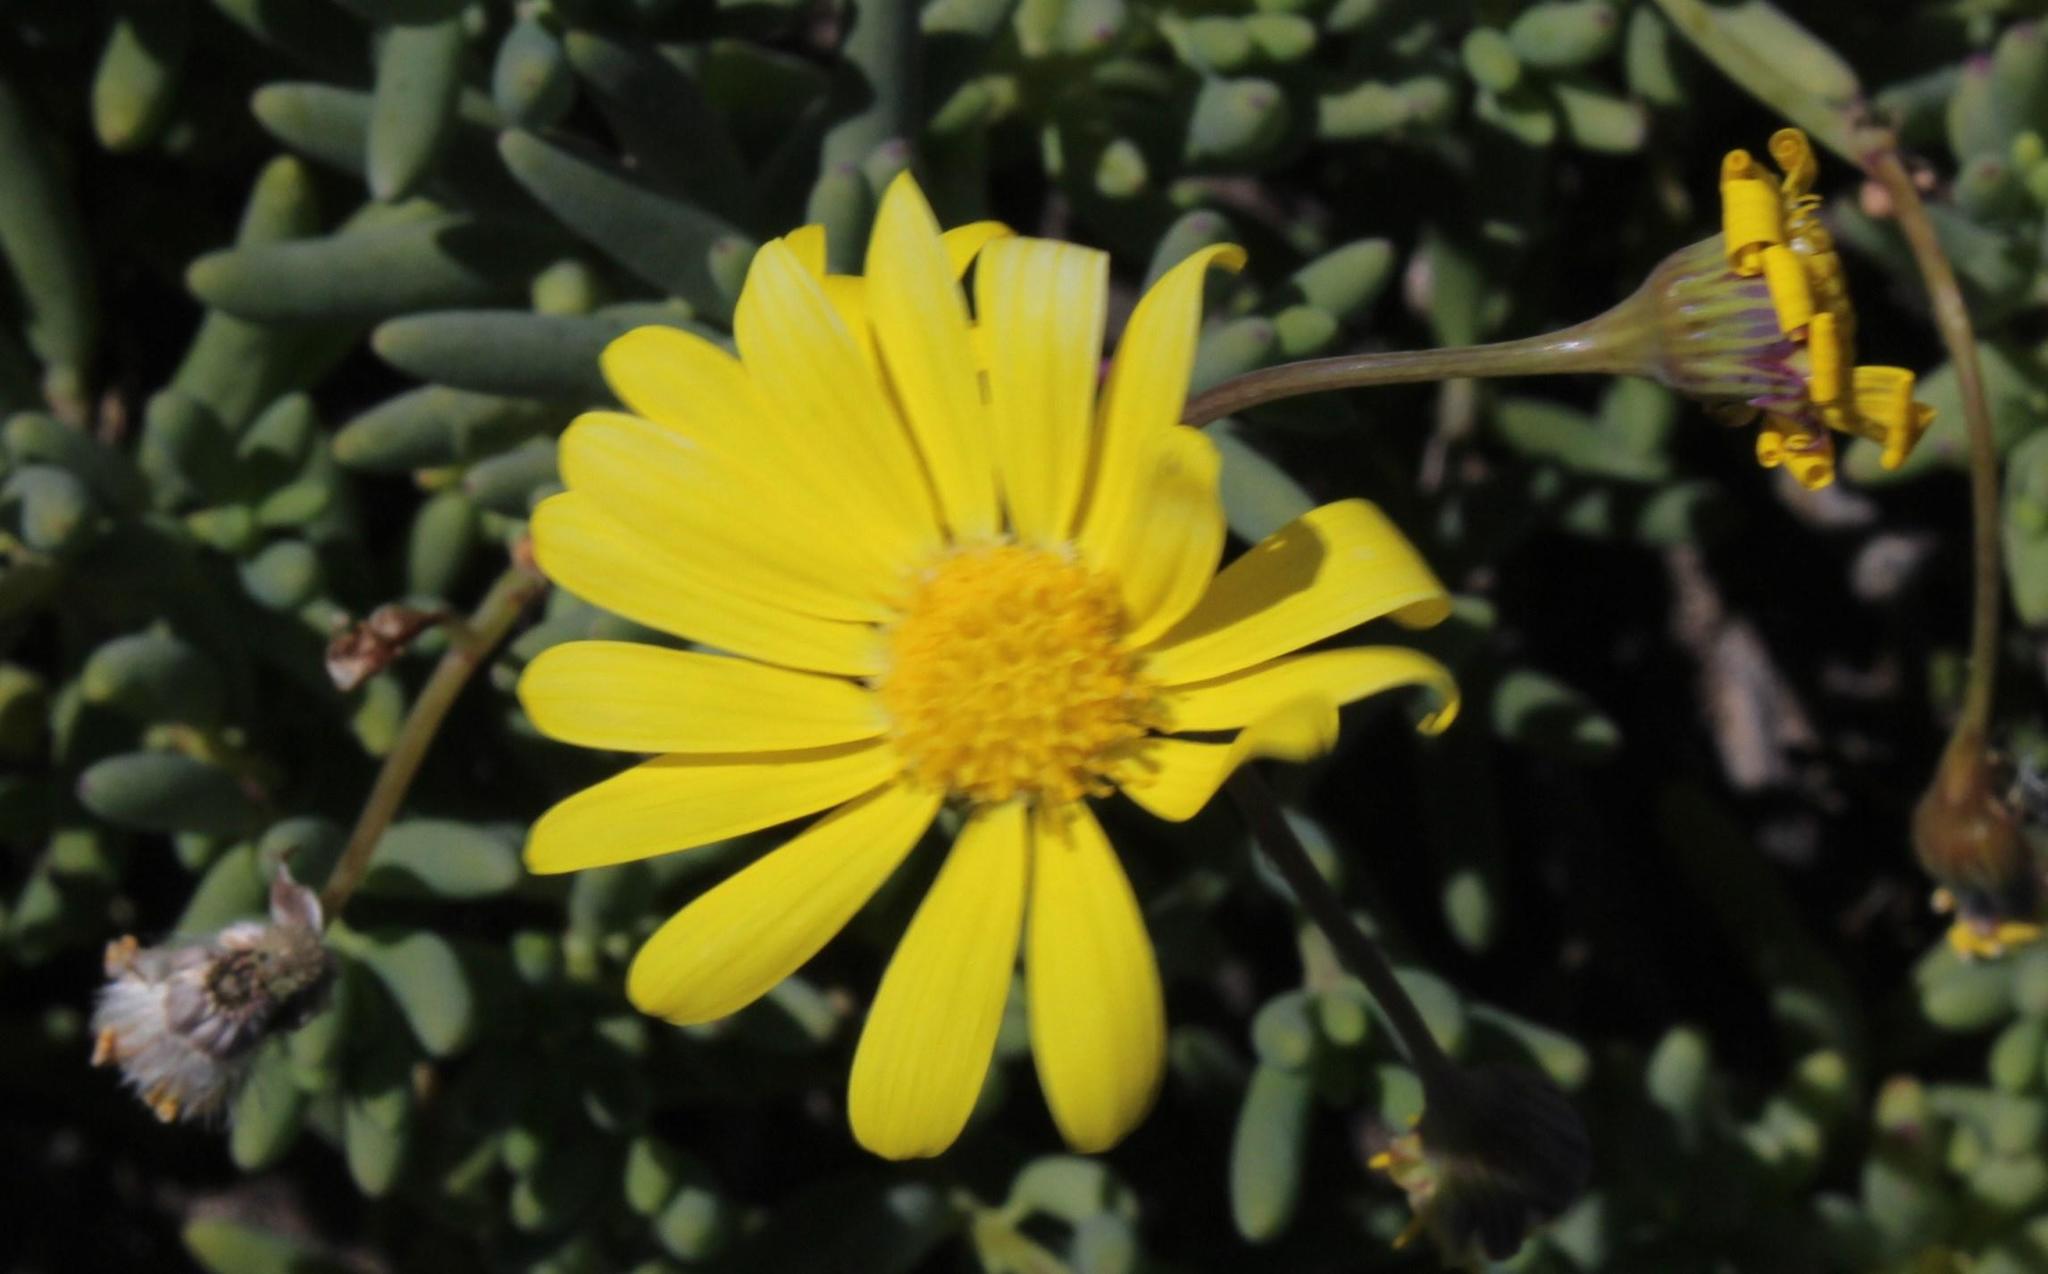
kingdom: Plantae
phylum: Tracheophyta
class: Magnoliopsida
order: Asterales
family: Asteraceae
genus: Crassothonna
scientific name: Crassothonna sedifolia
